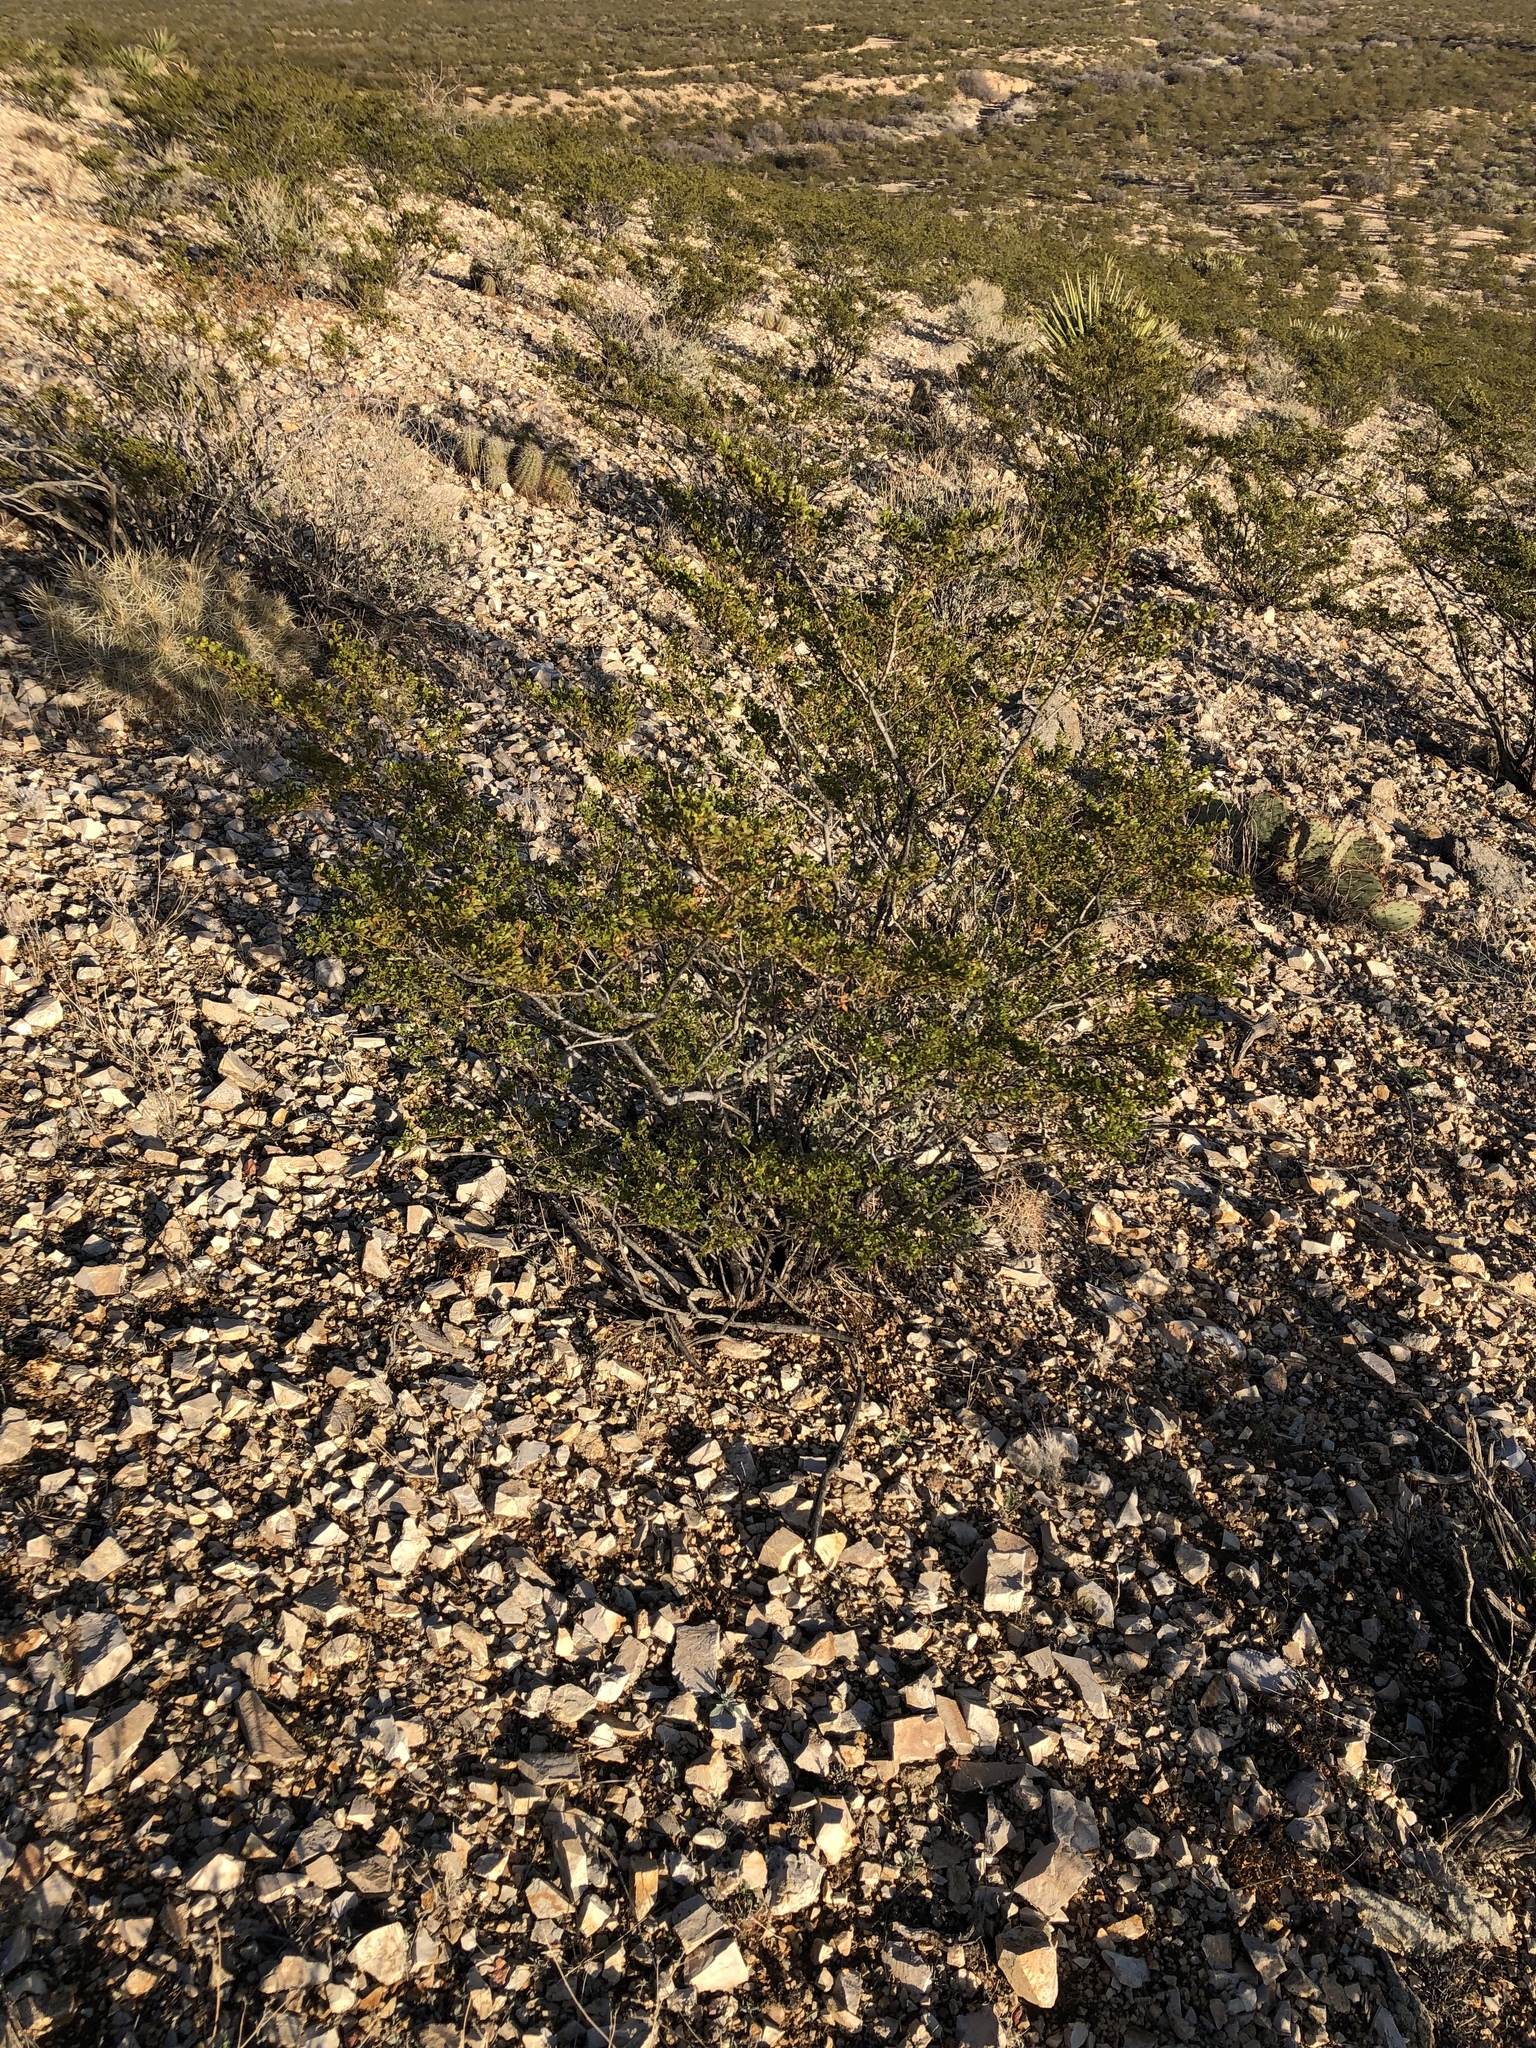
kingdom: Plantae
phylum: Tracheophyta
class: Magnoliopsida
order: Zygophyllales
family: Zygophyllaceae
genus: Larrea
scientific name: Larrea tridentata
